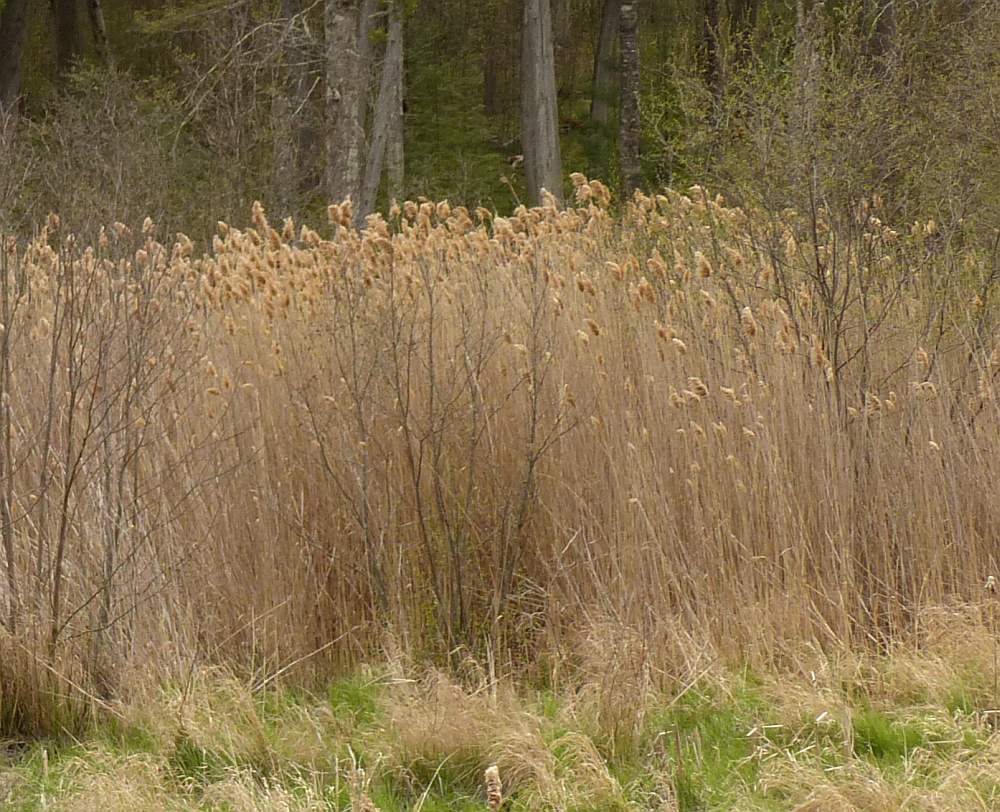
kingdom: Plantae
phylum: Tracheophyta
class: Liliopsida
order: Poales
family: Poaceae
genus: Phragmites
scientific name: Phragmites australis
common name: Common reed
